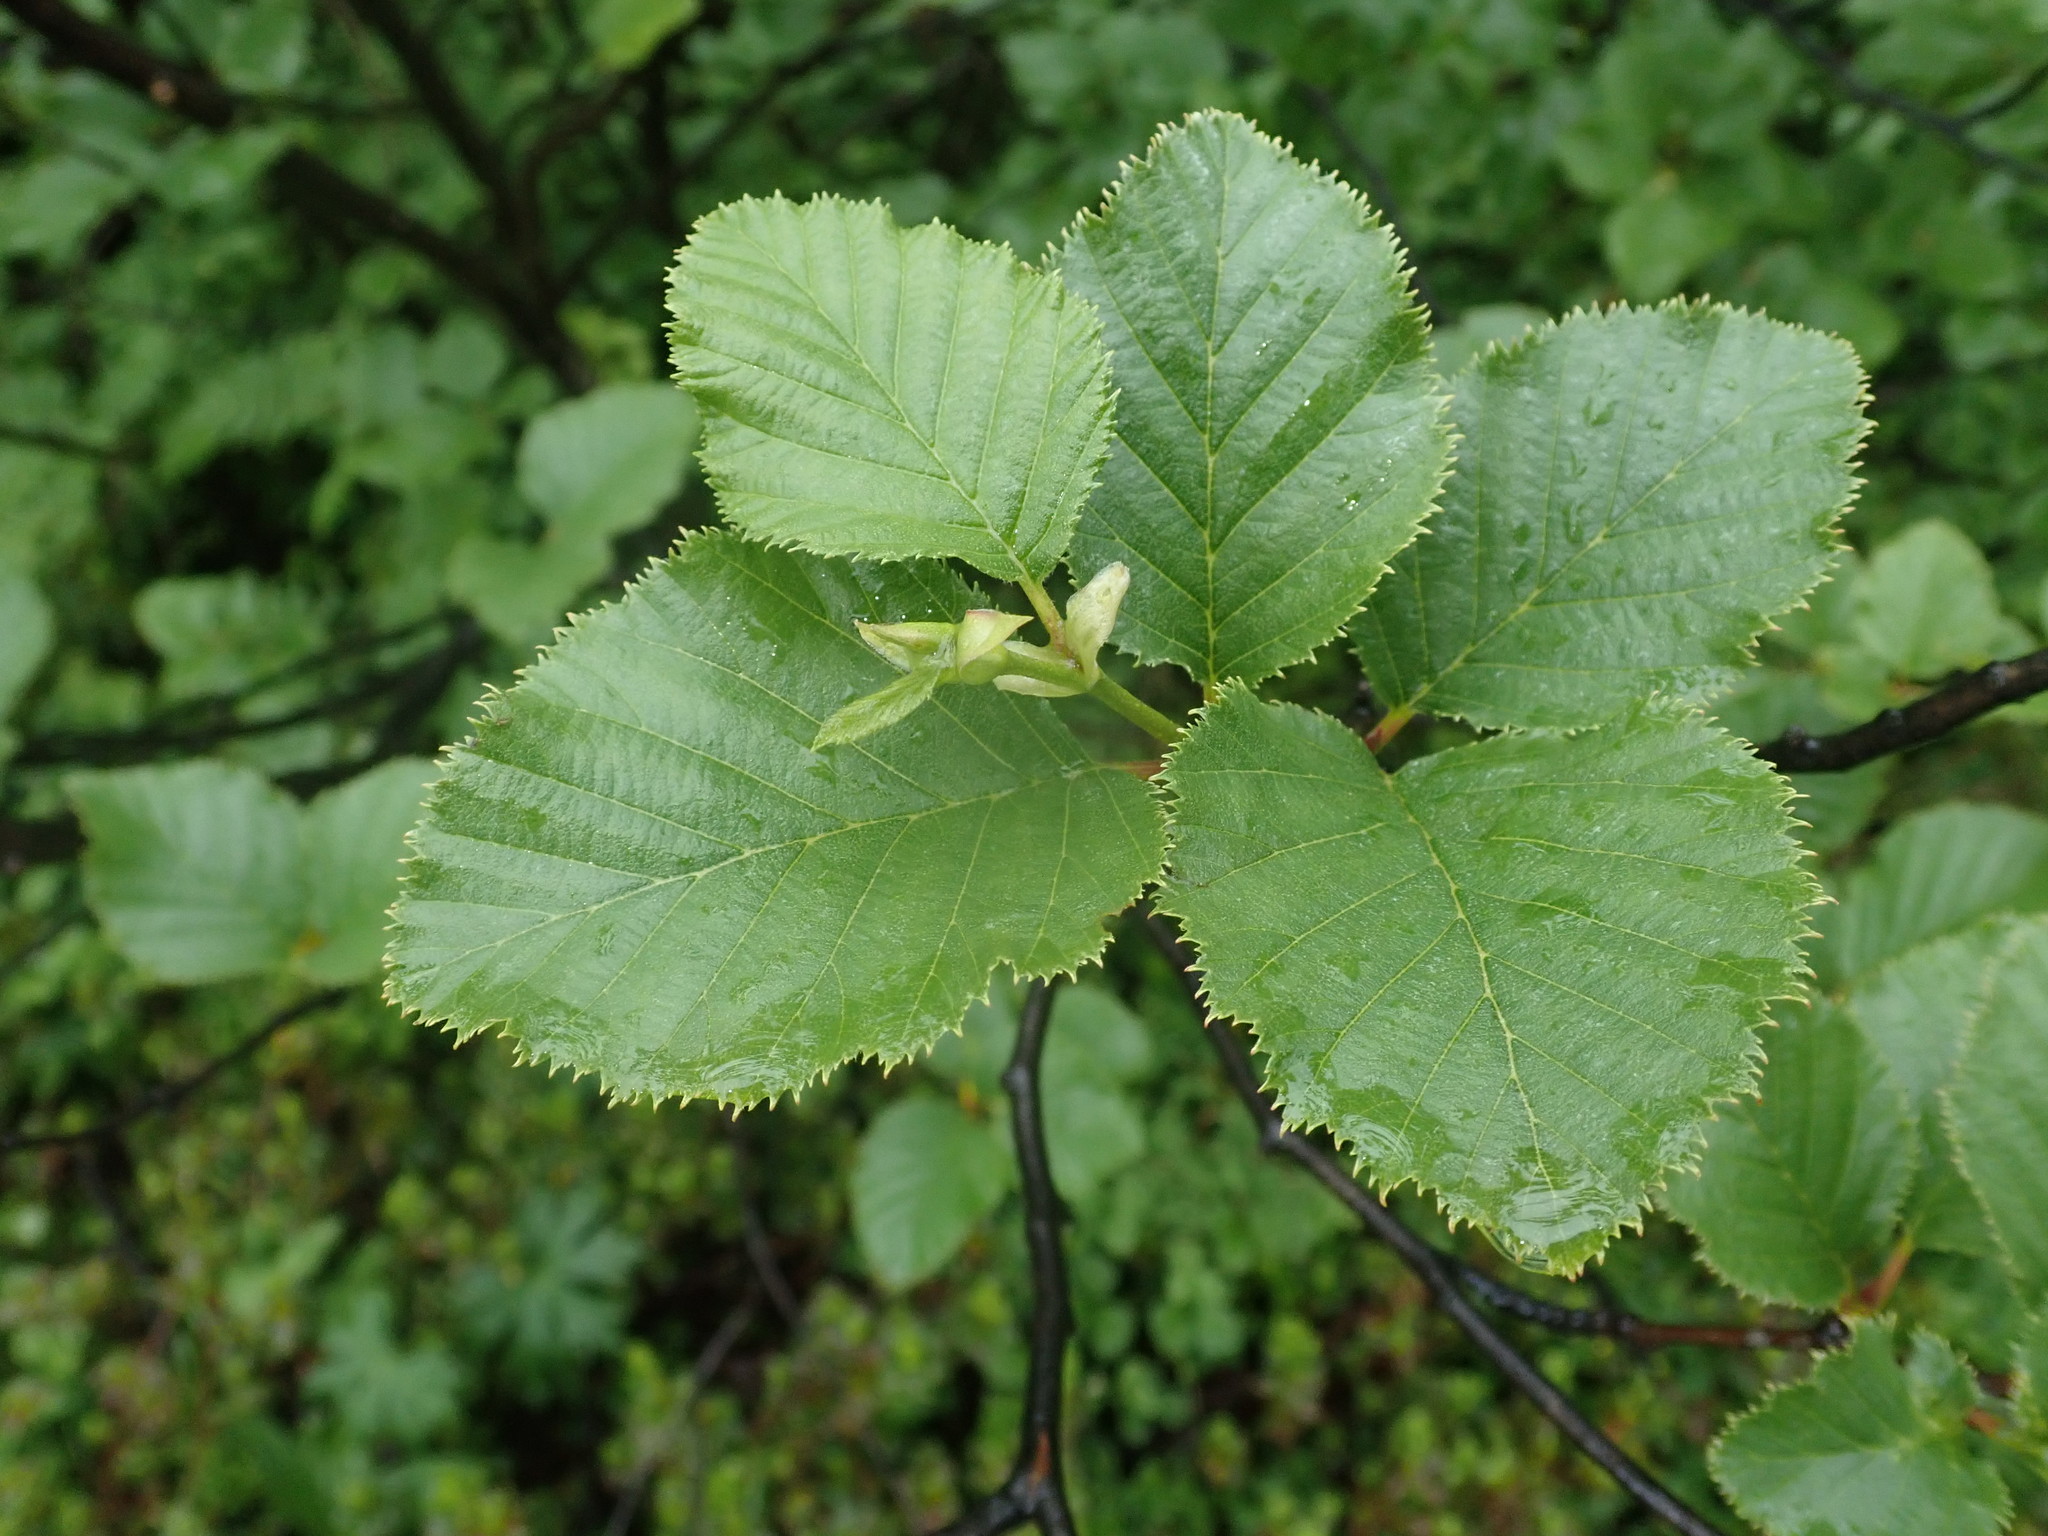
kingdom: Plantae
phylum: Tracheophyta
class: Magnoliopsida
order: Fagales
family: Betulaceae
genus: Alnus
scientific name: Alnus alnobetula
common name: Green alder
